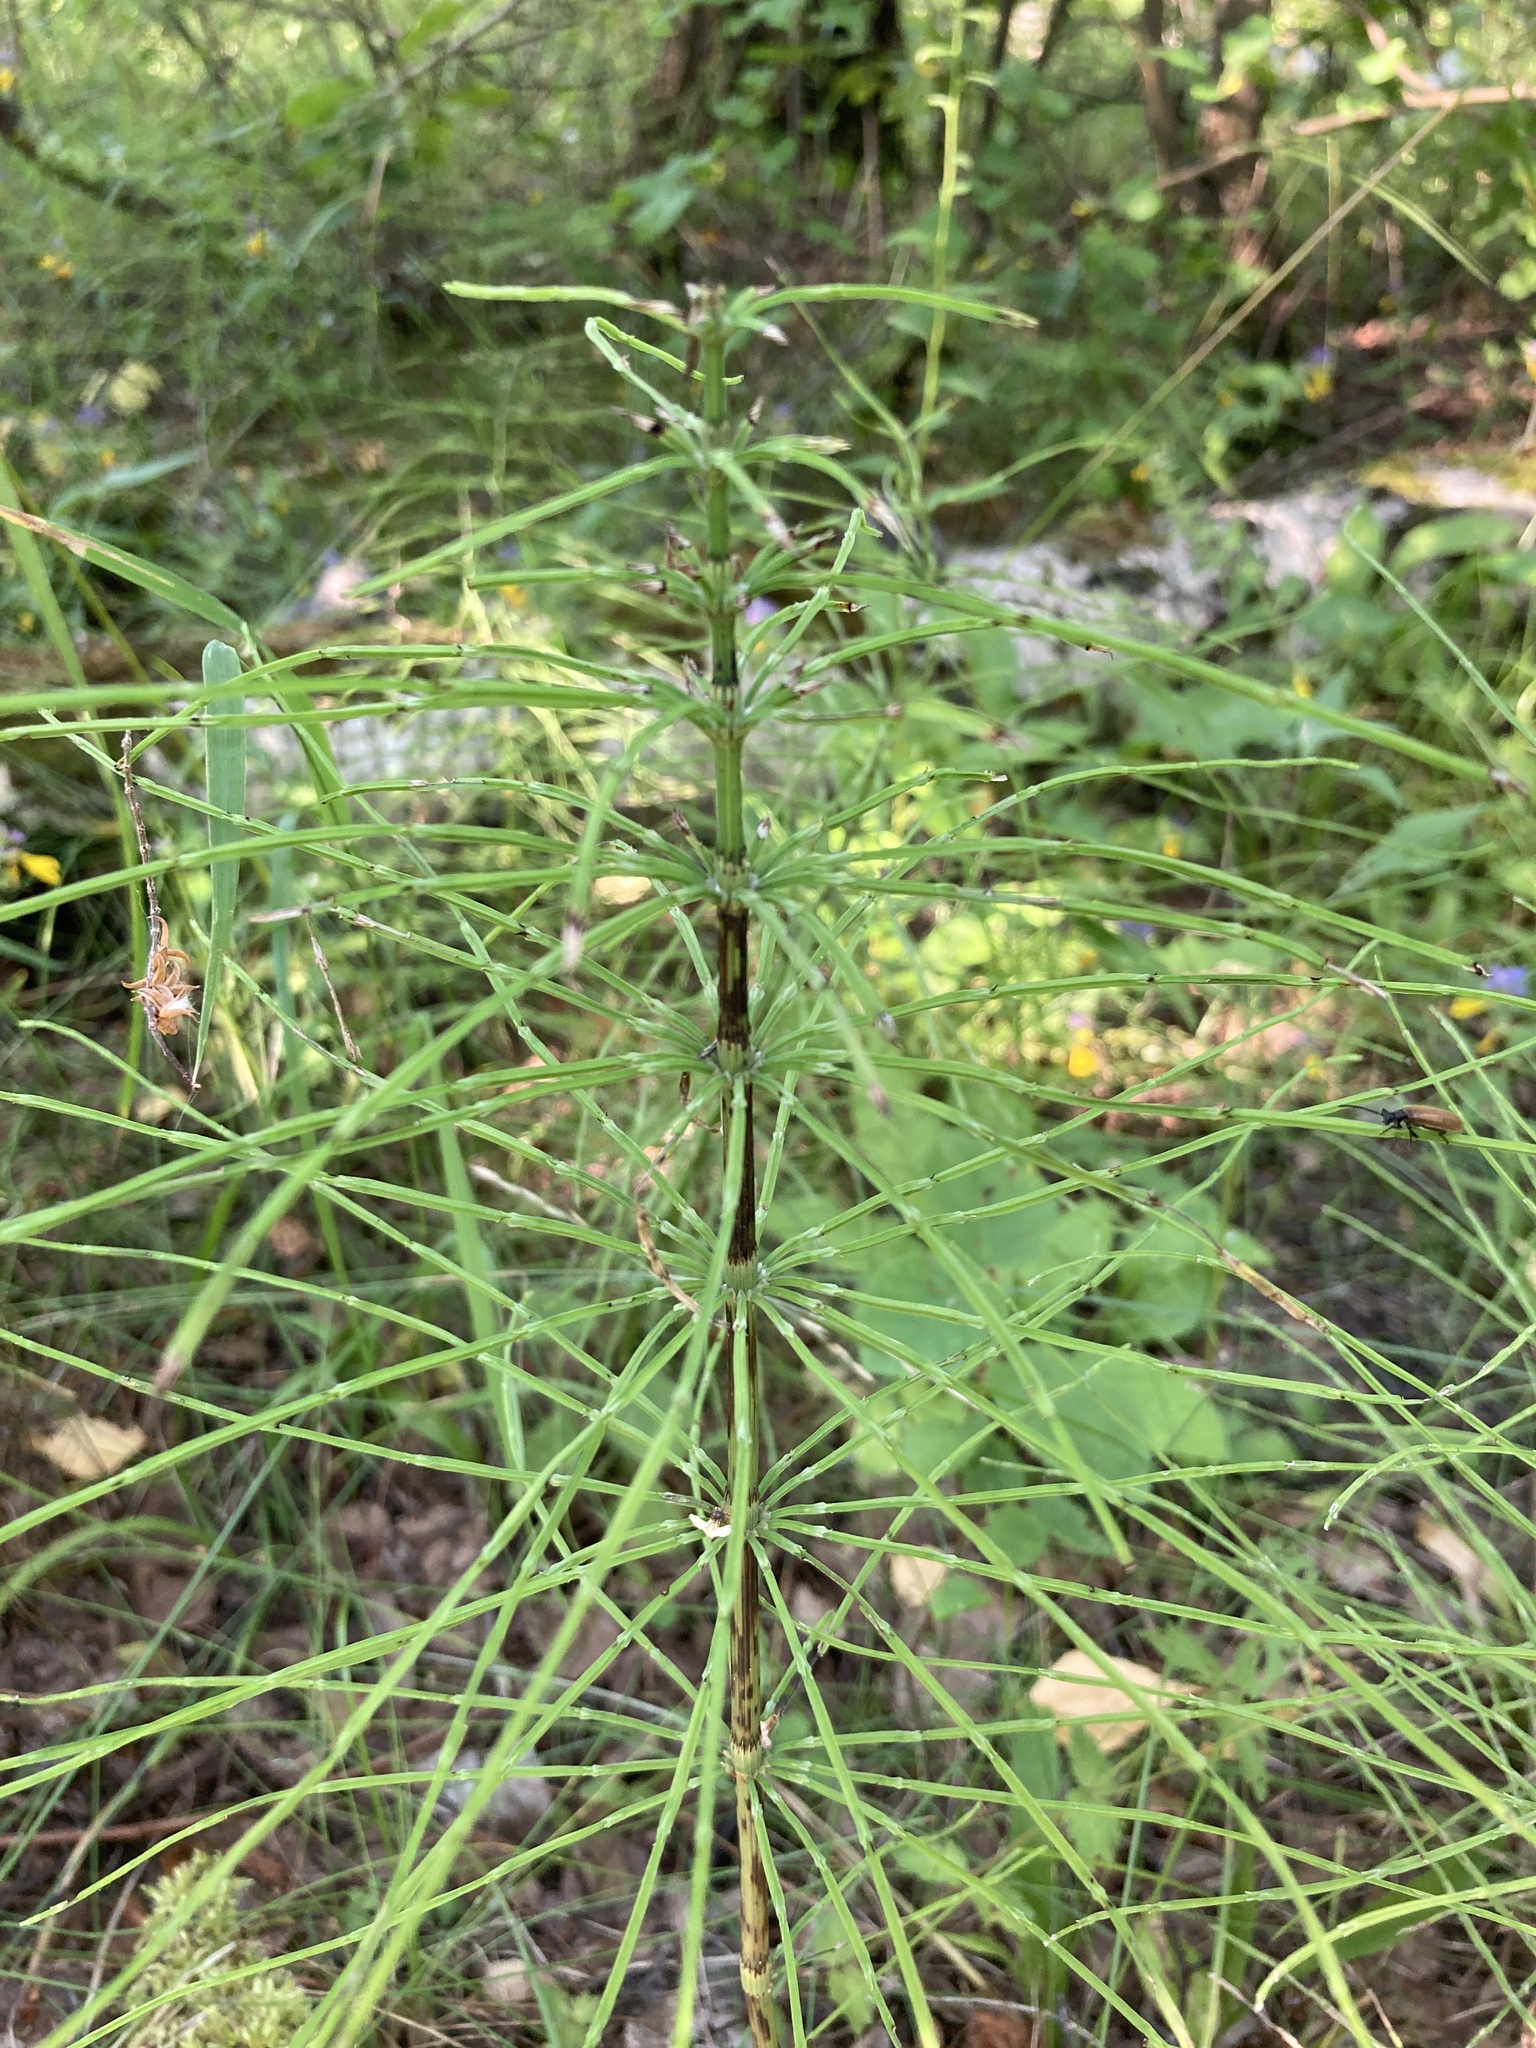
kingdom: Plantae
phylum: Tracheophyta
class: Polypodiopsida
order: Equisetales
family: Equisetaceae
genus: Equisetum
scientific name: Equisetum arvense
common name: Field horsetail
